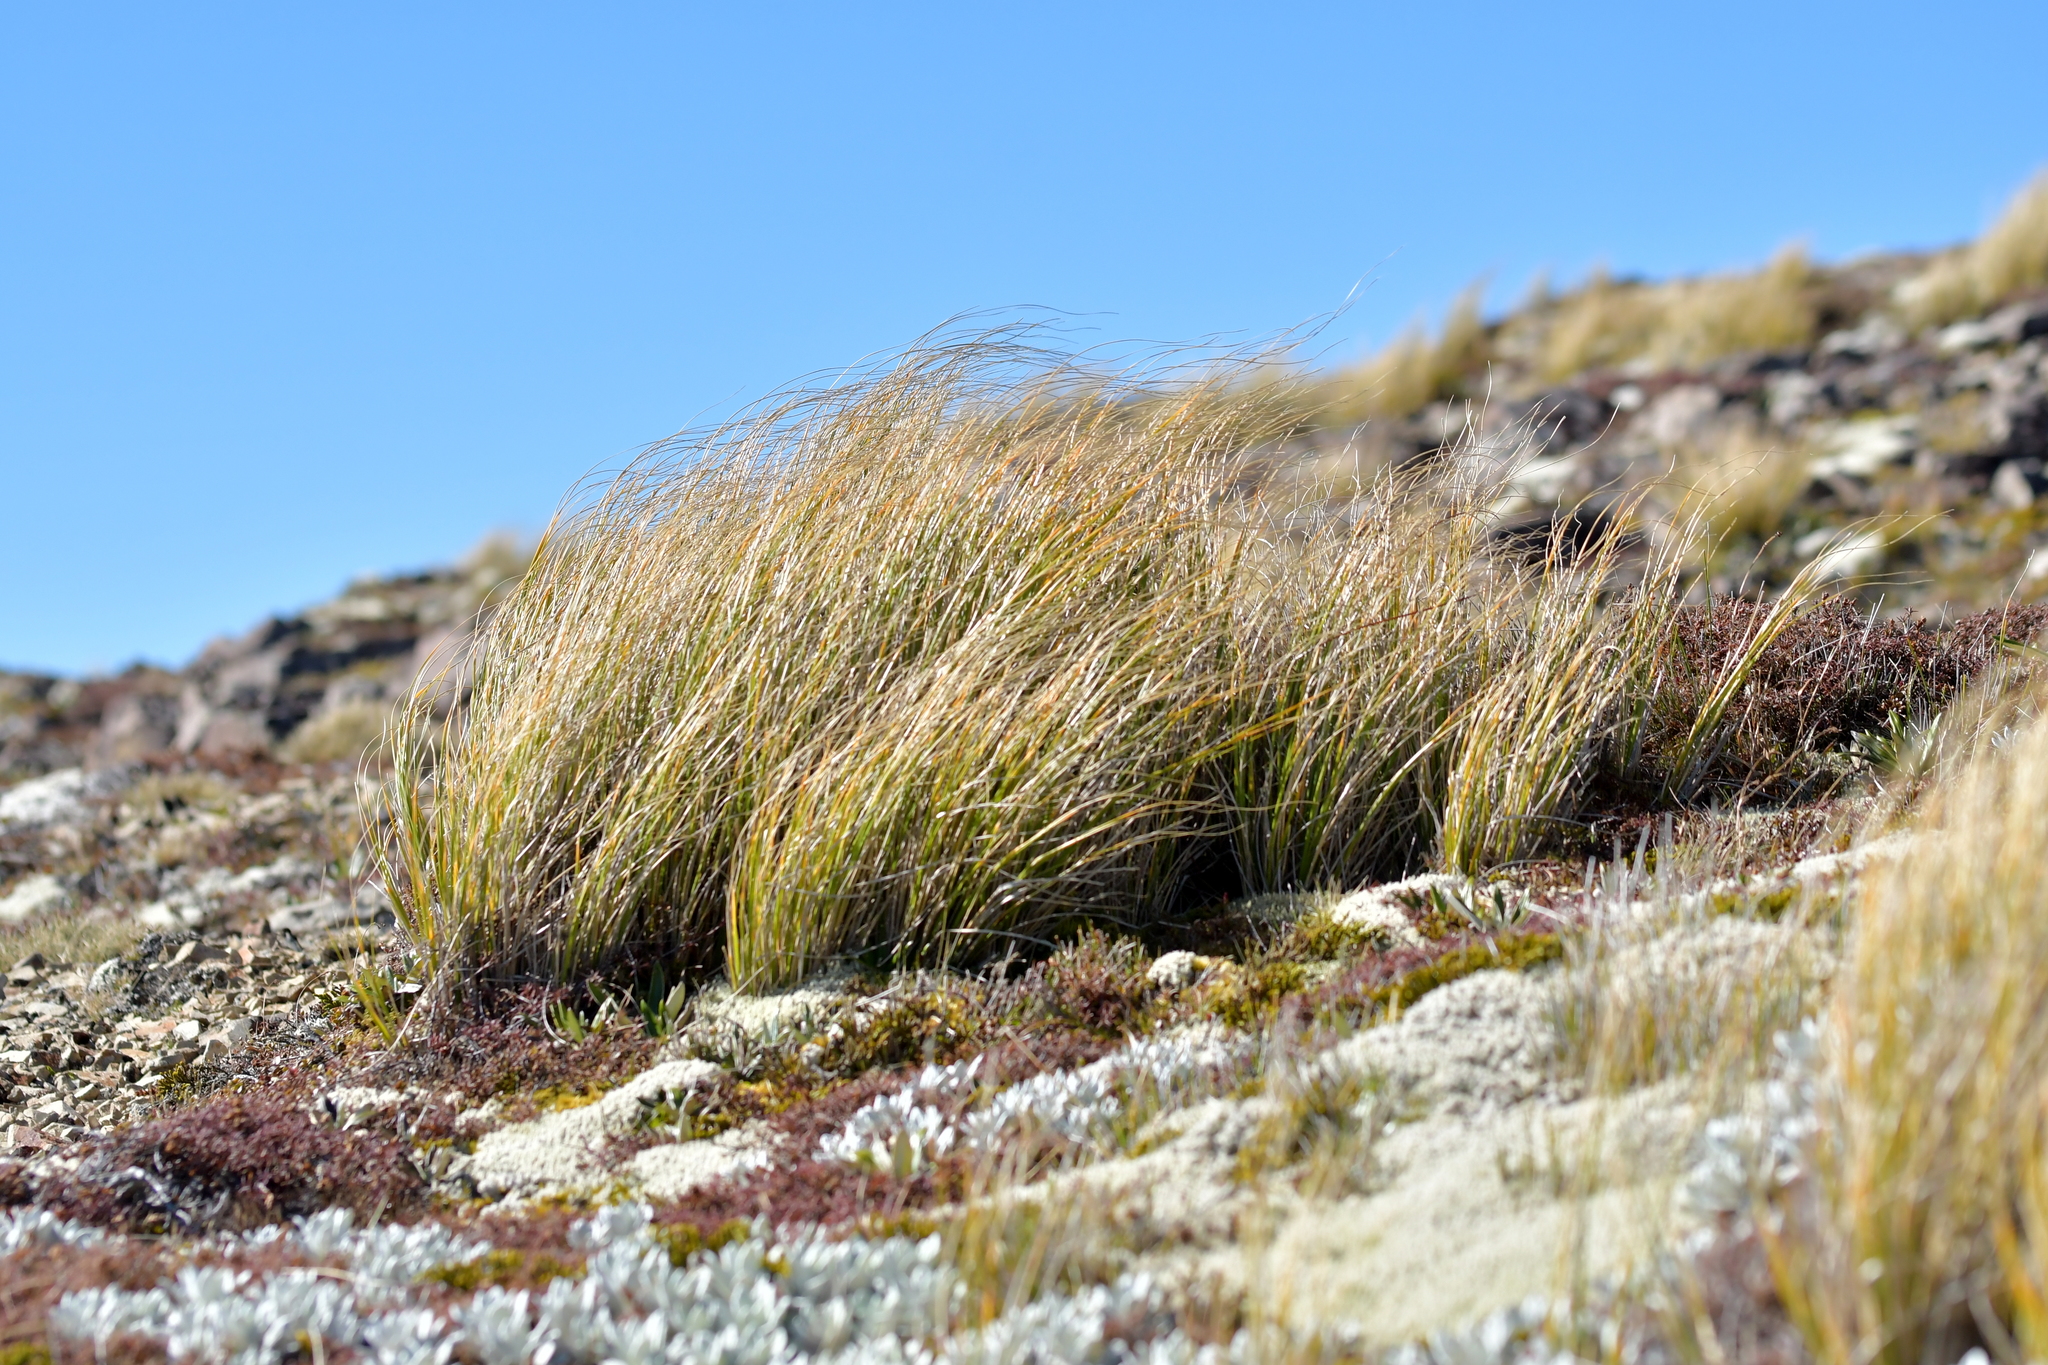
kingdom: Plantae
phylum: Tracheophyta
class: Liliopsida
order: Poales
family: Poaceae
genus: Chionochloa
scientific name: Chionochloa pallens
